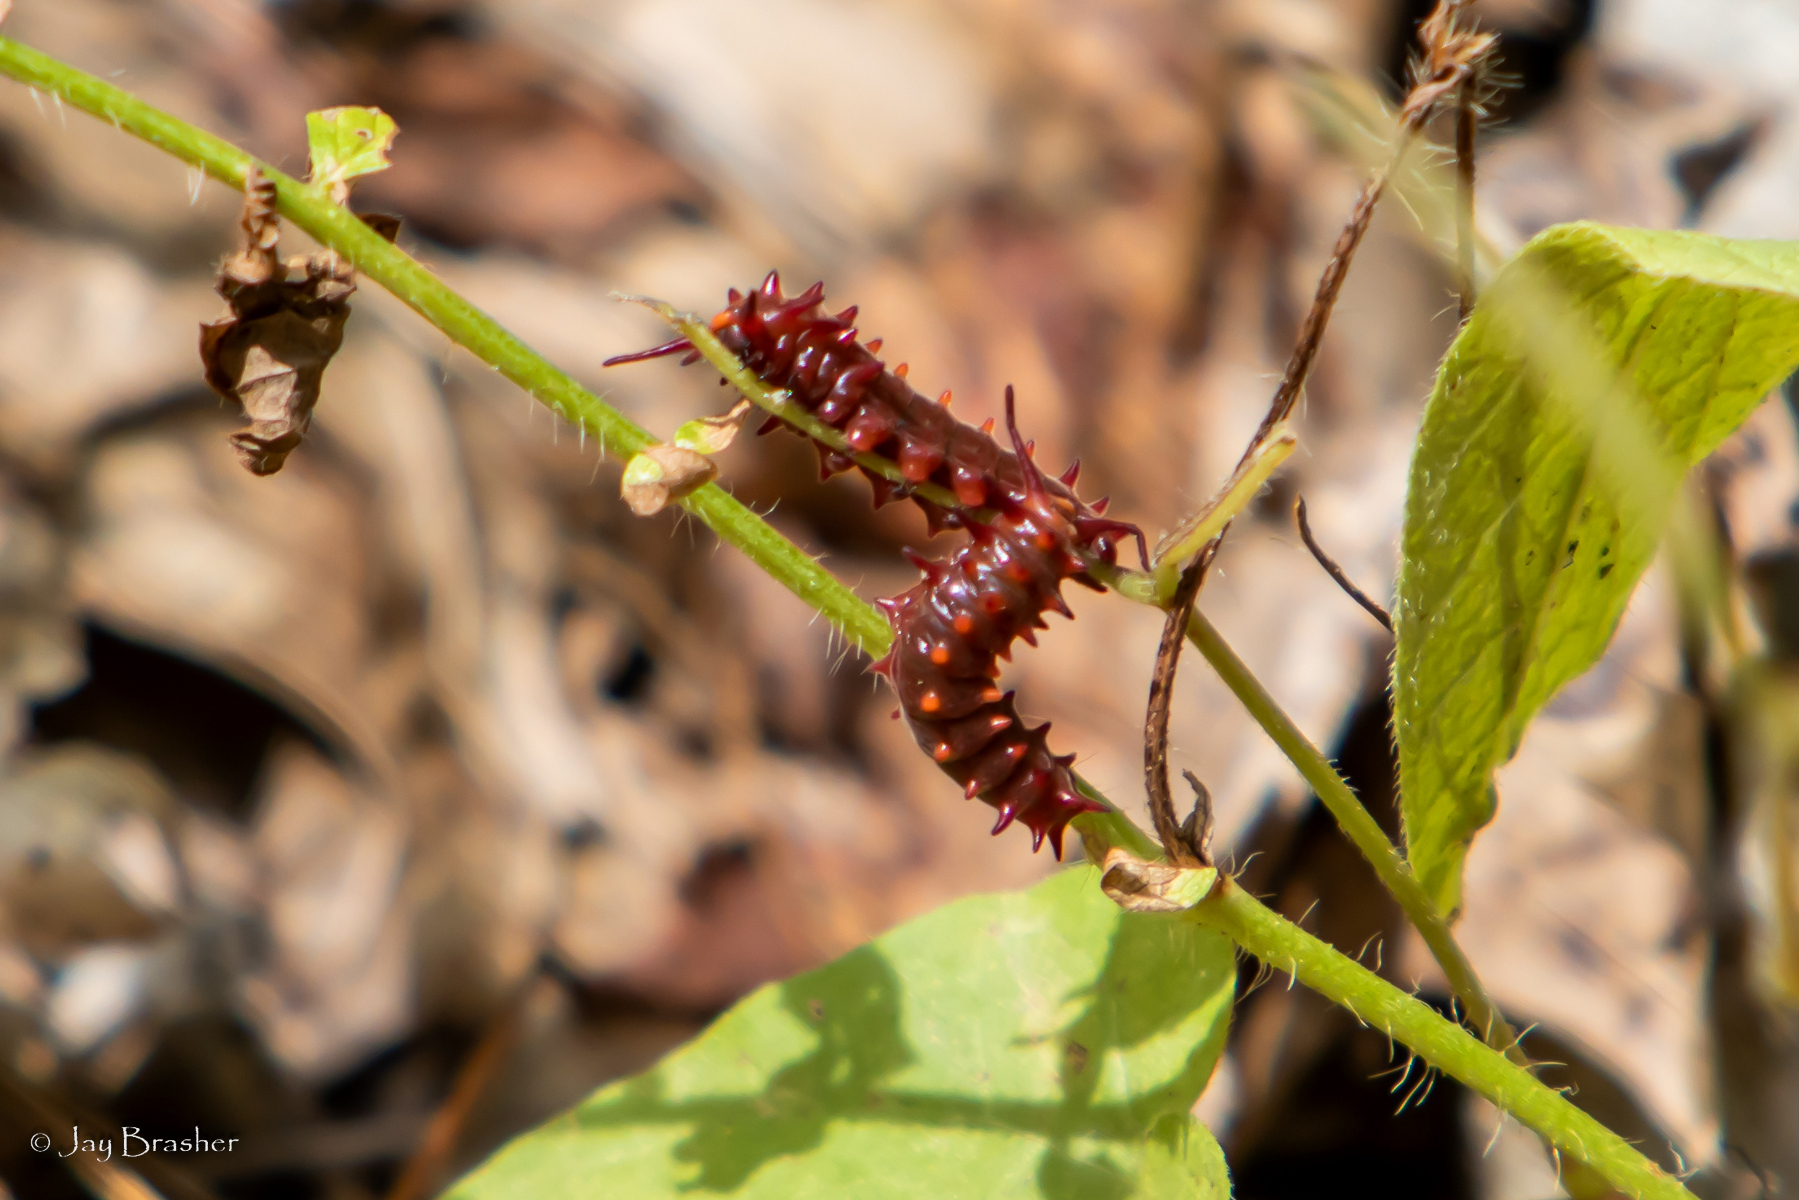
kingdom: Animalia
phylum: Arthropoda
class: Insecta
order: Lepidoptera
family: Papilionidae
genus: Battus
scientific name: Battus philenor
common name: Pipevine swallowtail
